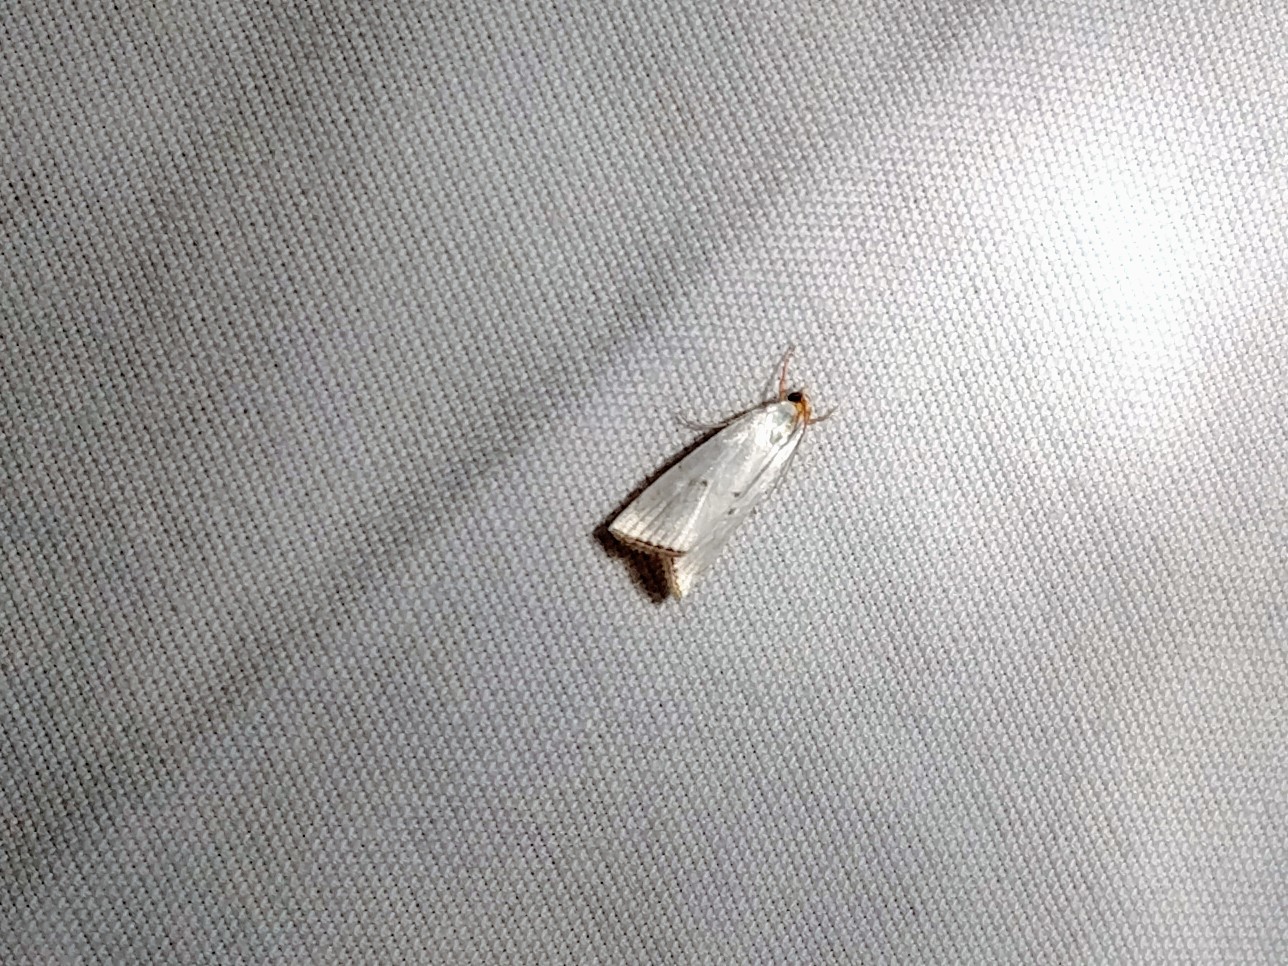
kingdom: Animalia
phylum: Arthropoda
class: Insecta
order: Lepidoptera
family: Crambidae
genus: Argyria
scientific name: Argyria pusillalis
